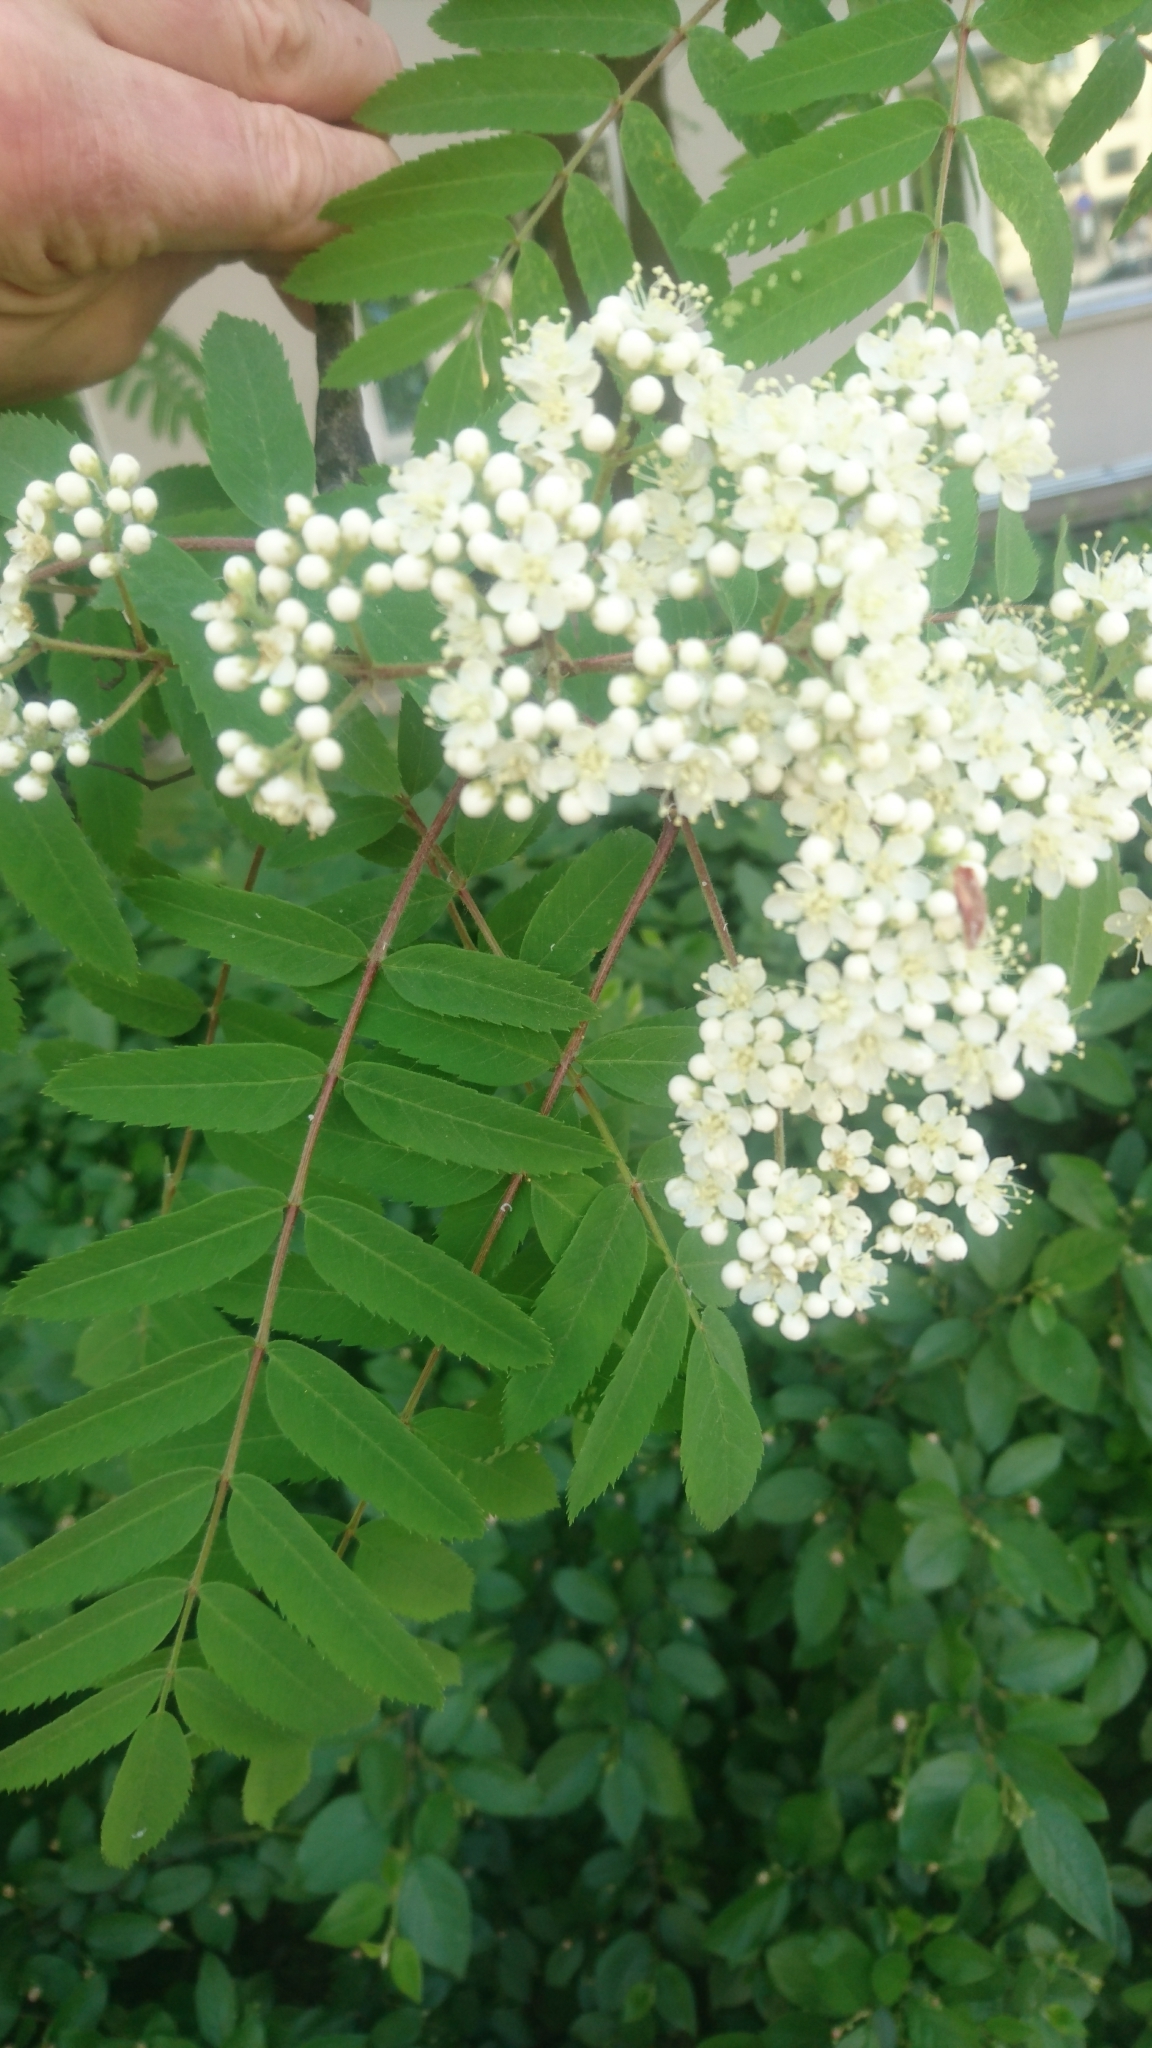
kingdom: Plantae
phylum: Tracheophyta
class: Magnoliopsida
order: Rosales
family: Rosaceae
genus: Sorbus
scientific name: Sorbus aucuparia
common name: Rowan
